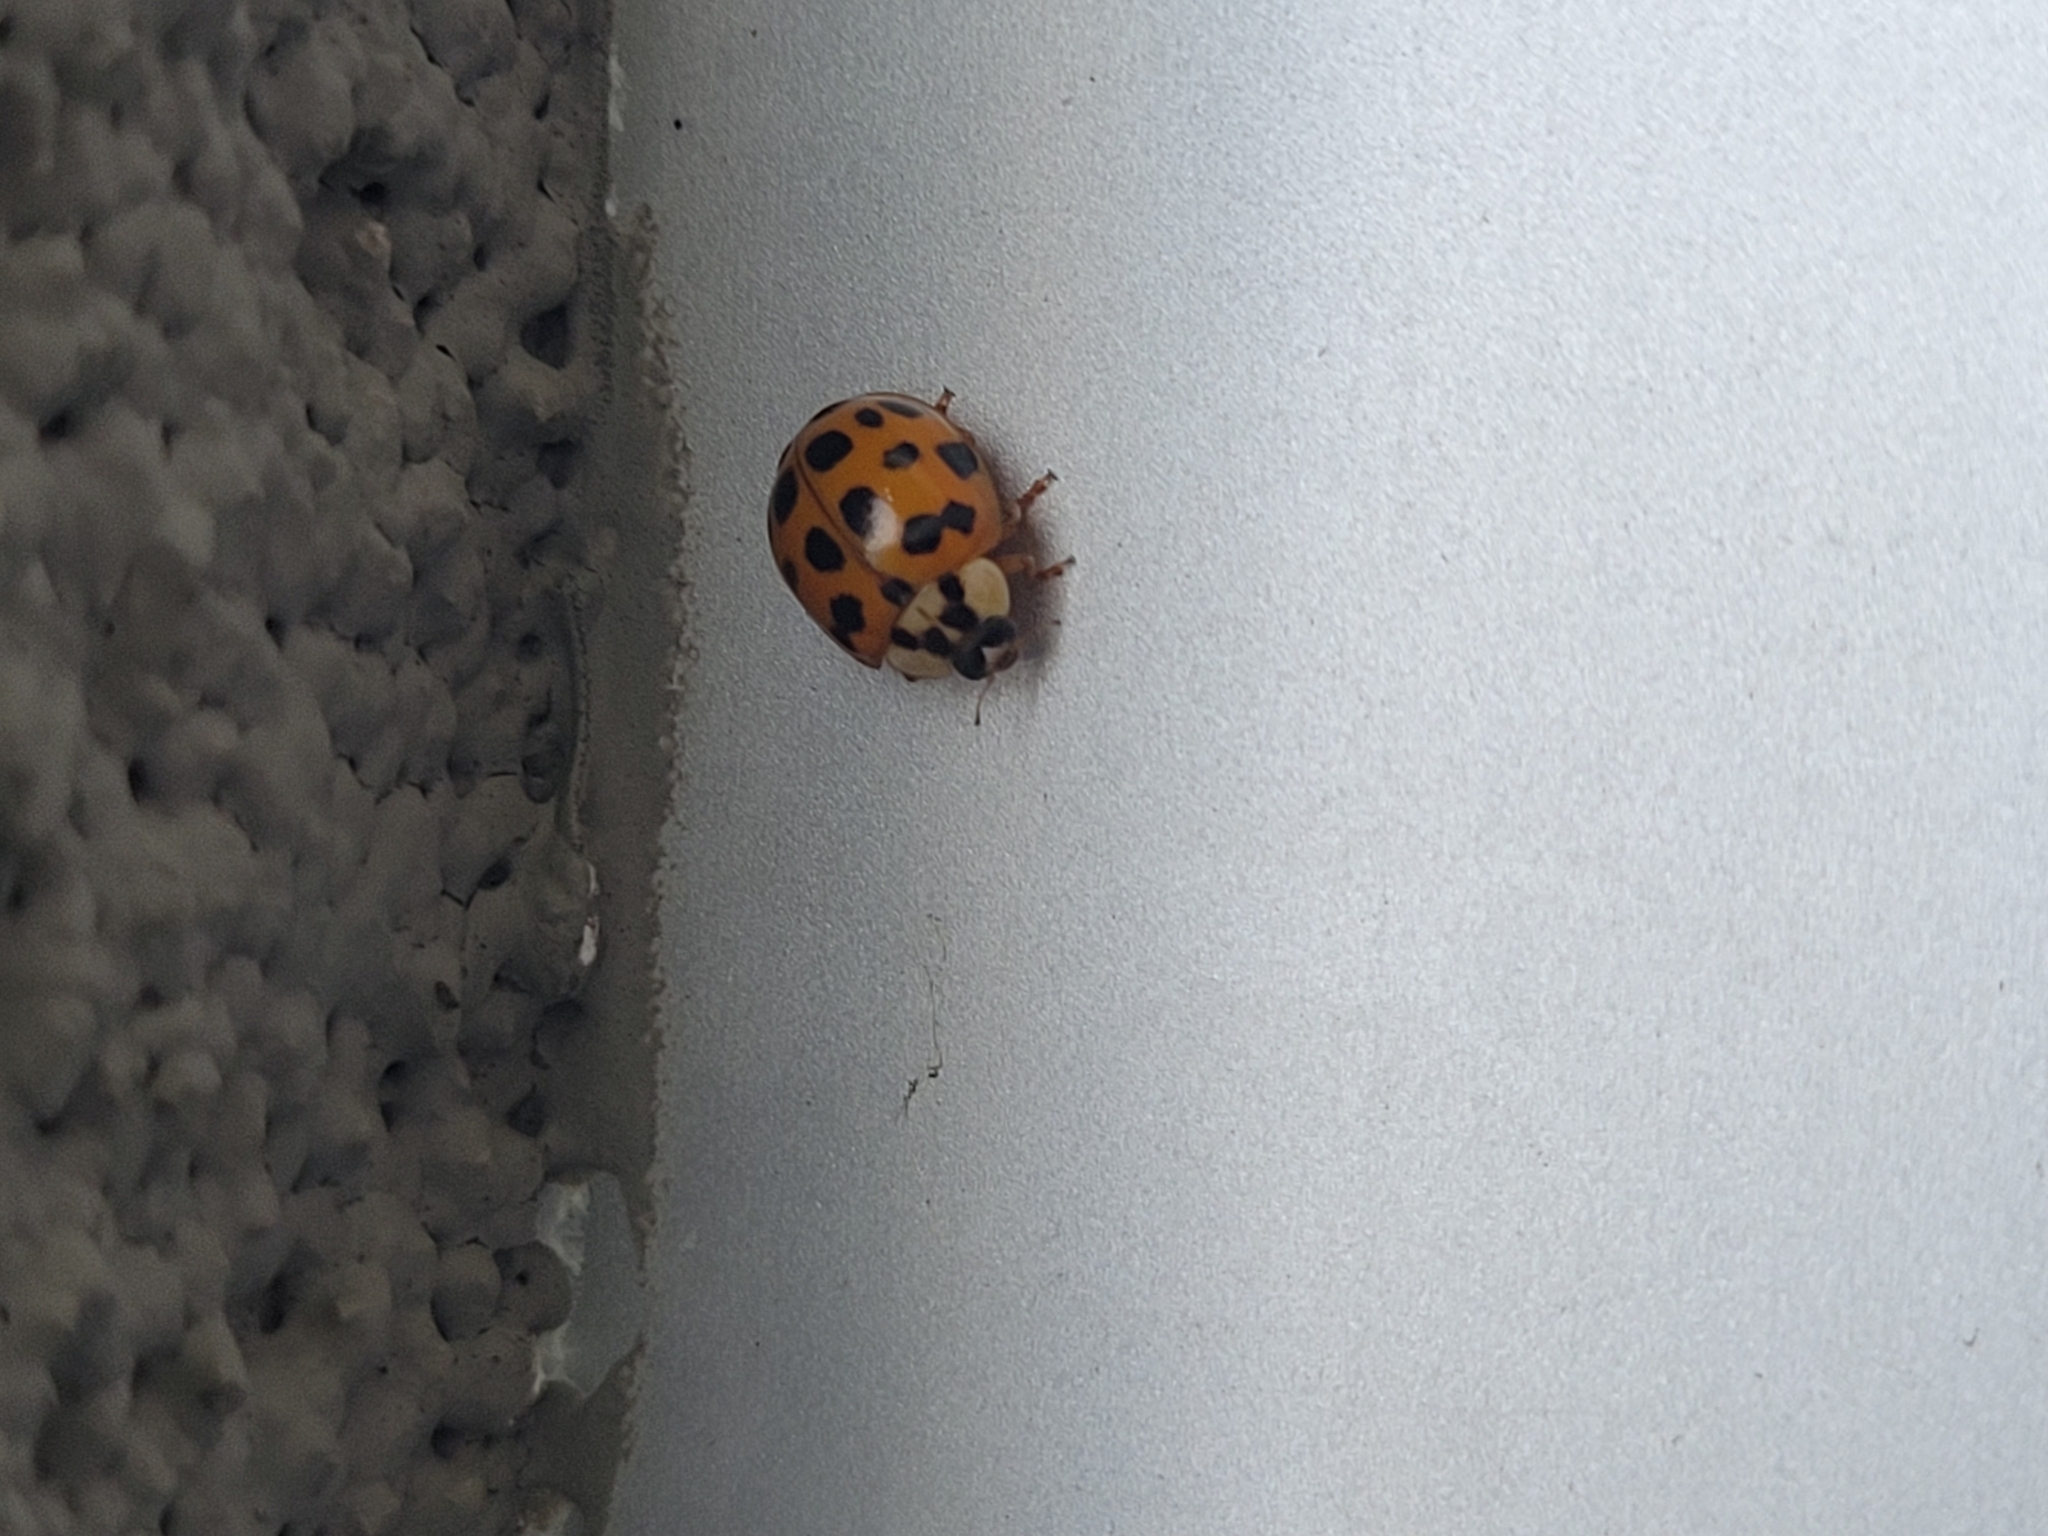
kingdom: Animalia
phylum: Arthropoda
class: Insecta
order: Coleoptera
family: Coccinellidae
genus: Harmonia
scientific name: Harmonia axyridis
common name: Harlequin ladybird
